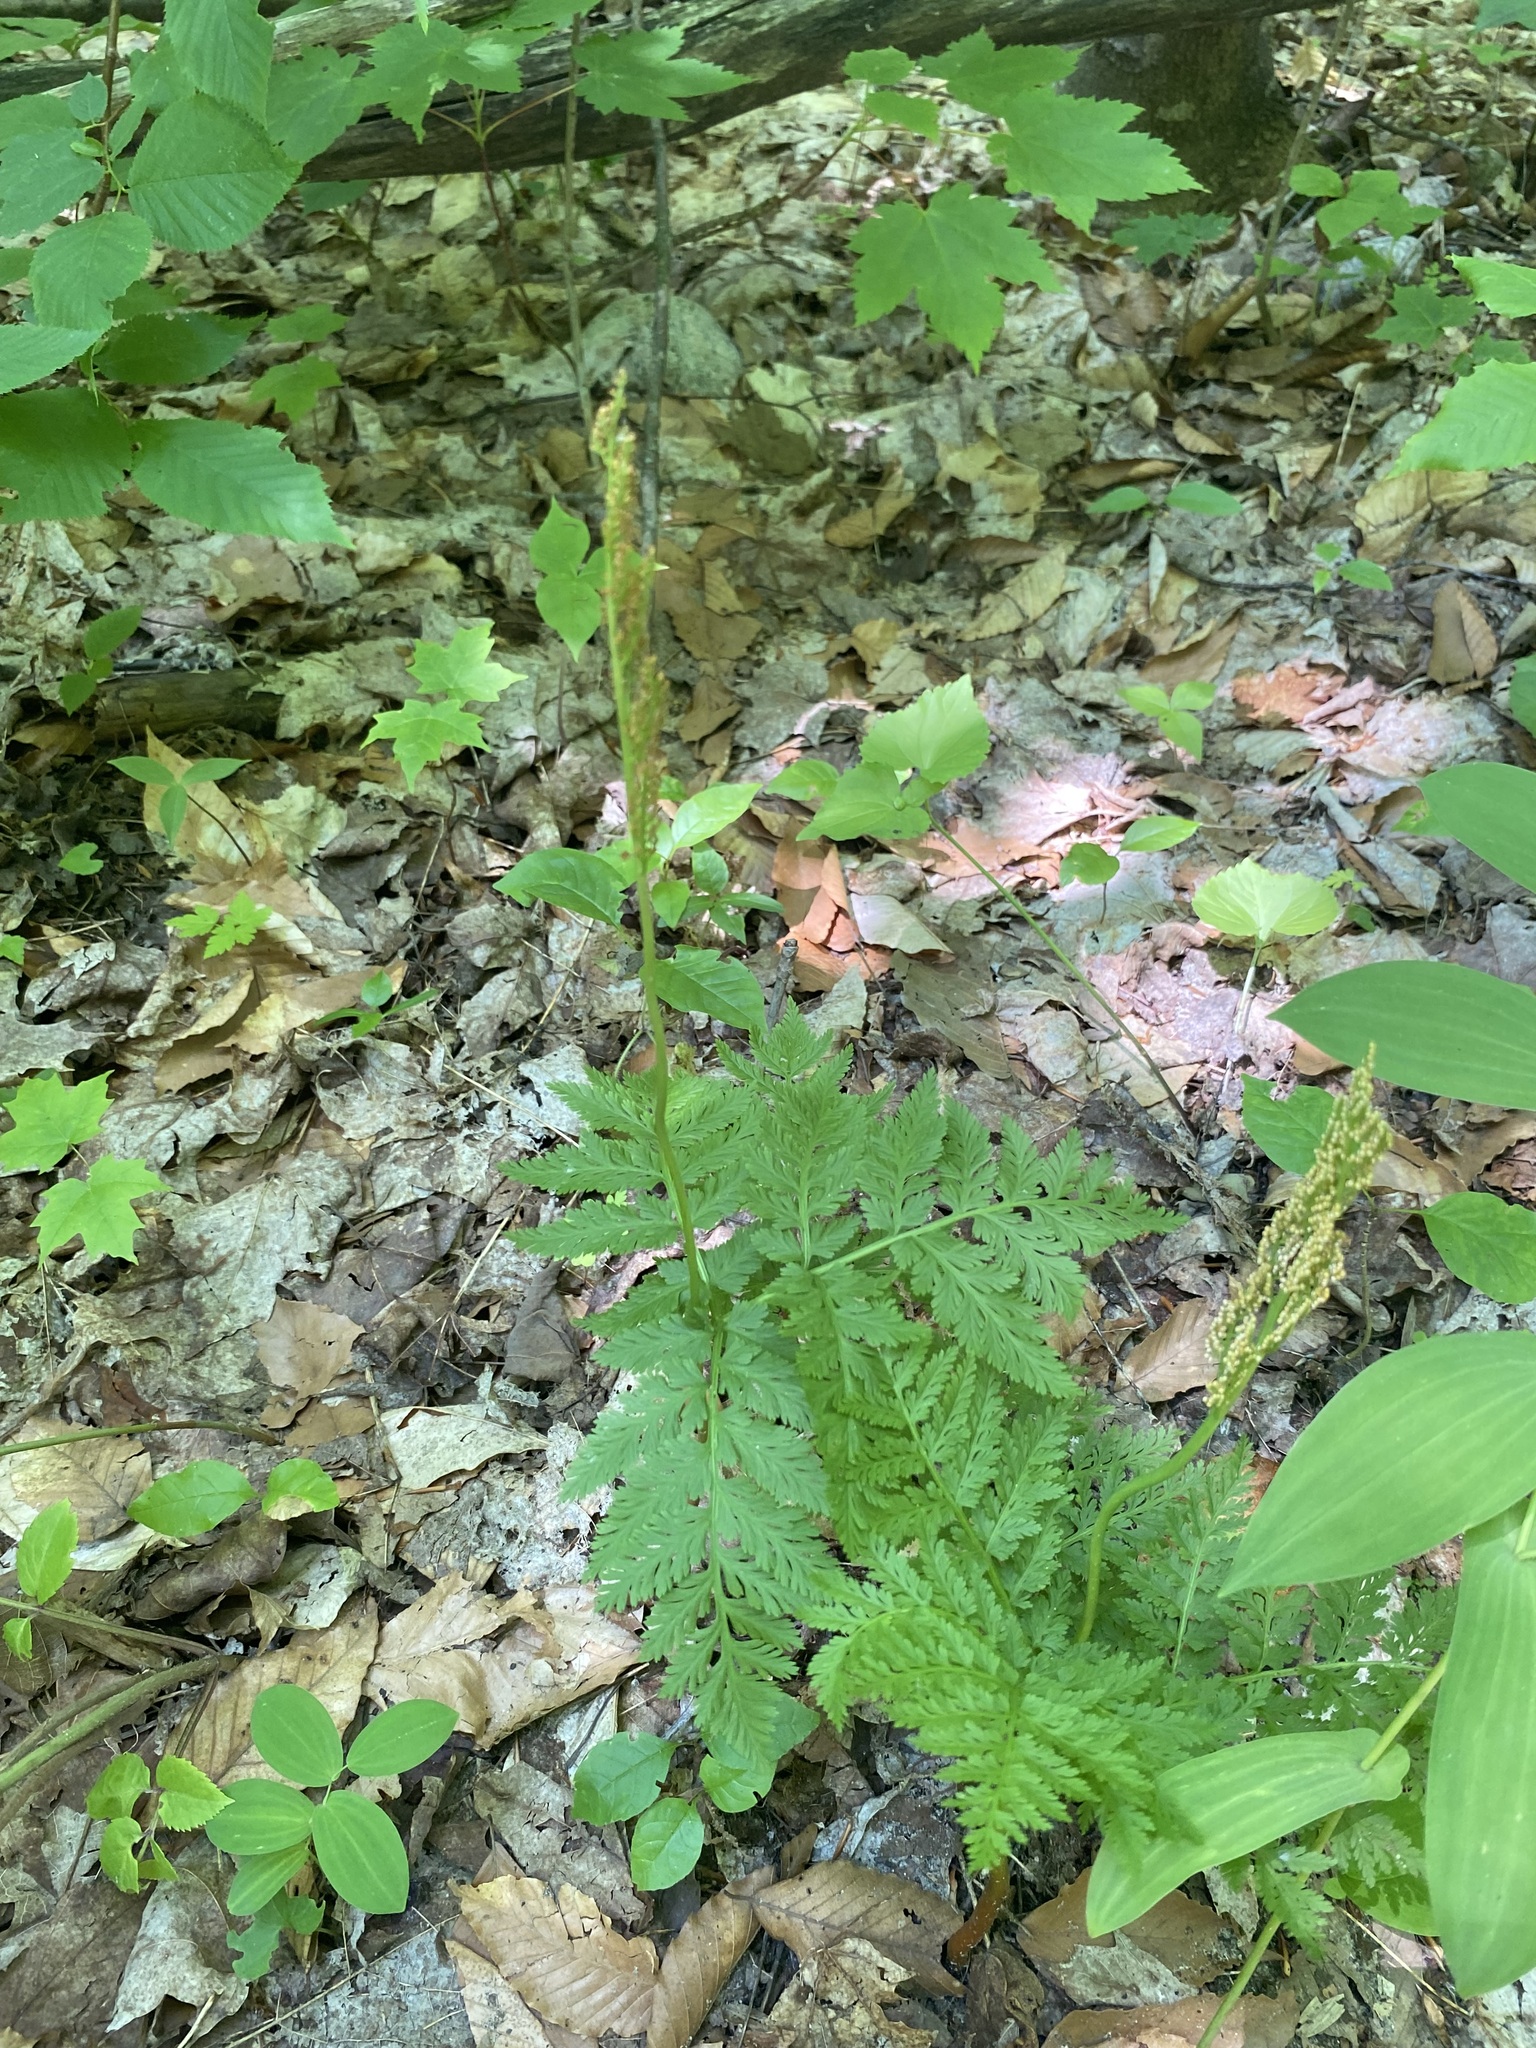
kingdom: Plantae
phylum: Tracheophyta
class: Polypodiopsida
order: Ophioglossales
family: Ophioglossaceae
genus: Botrypus
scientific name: Botrypus virginianus
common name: Common grapefern
